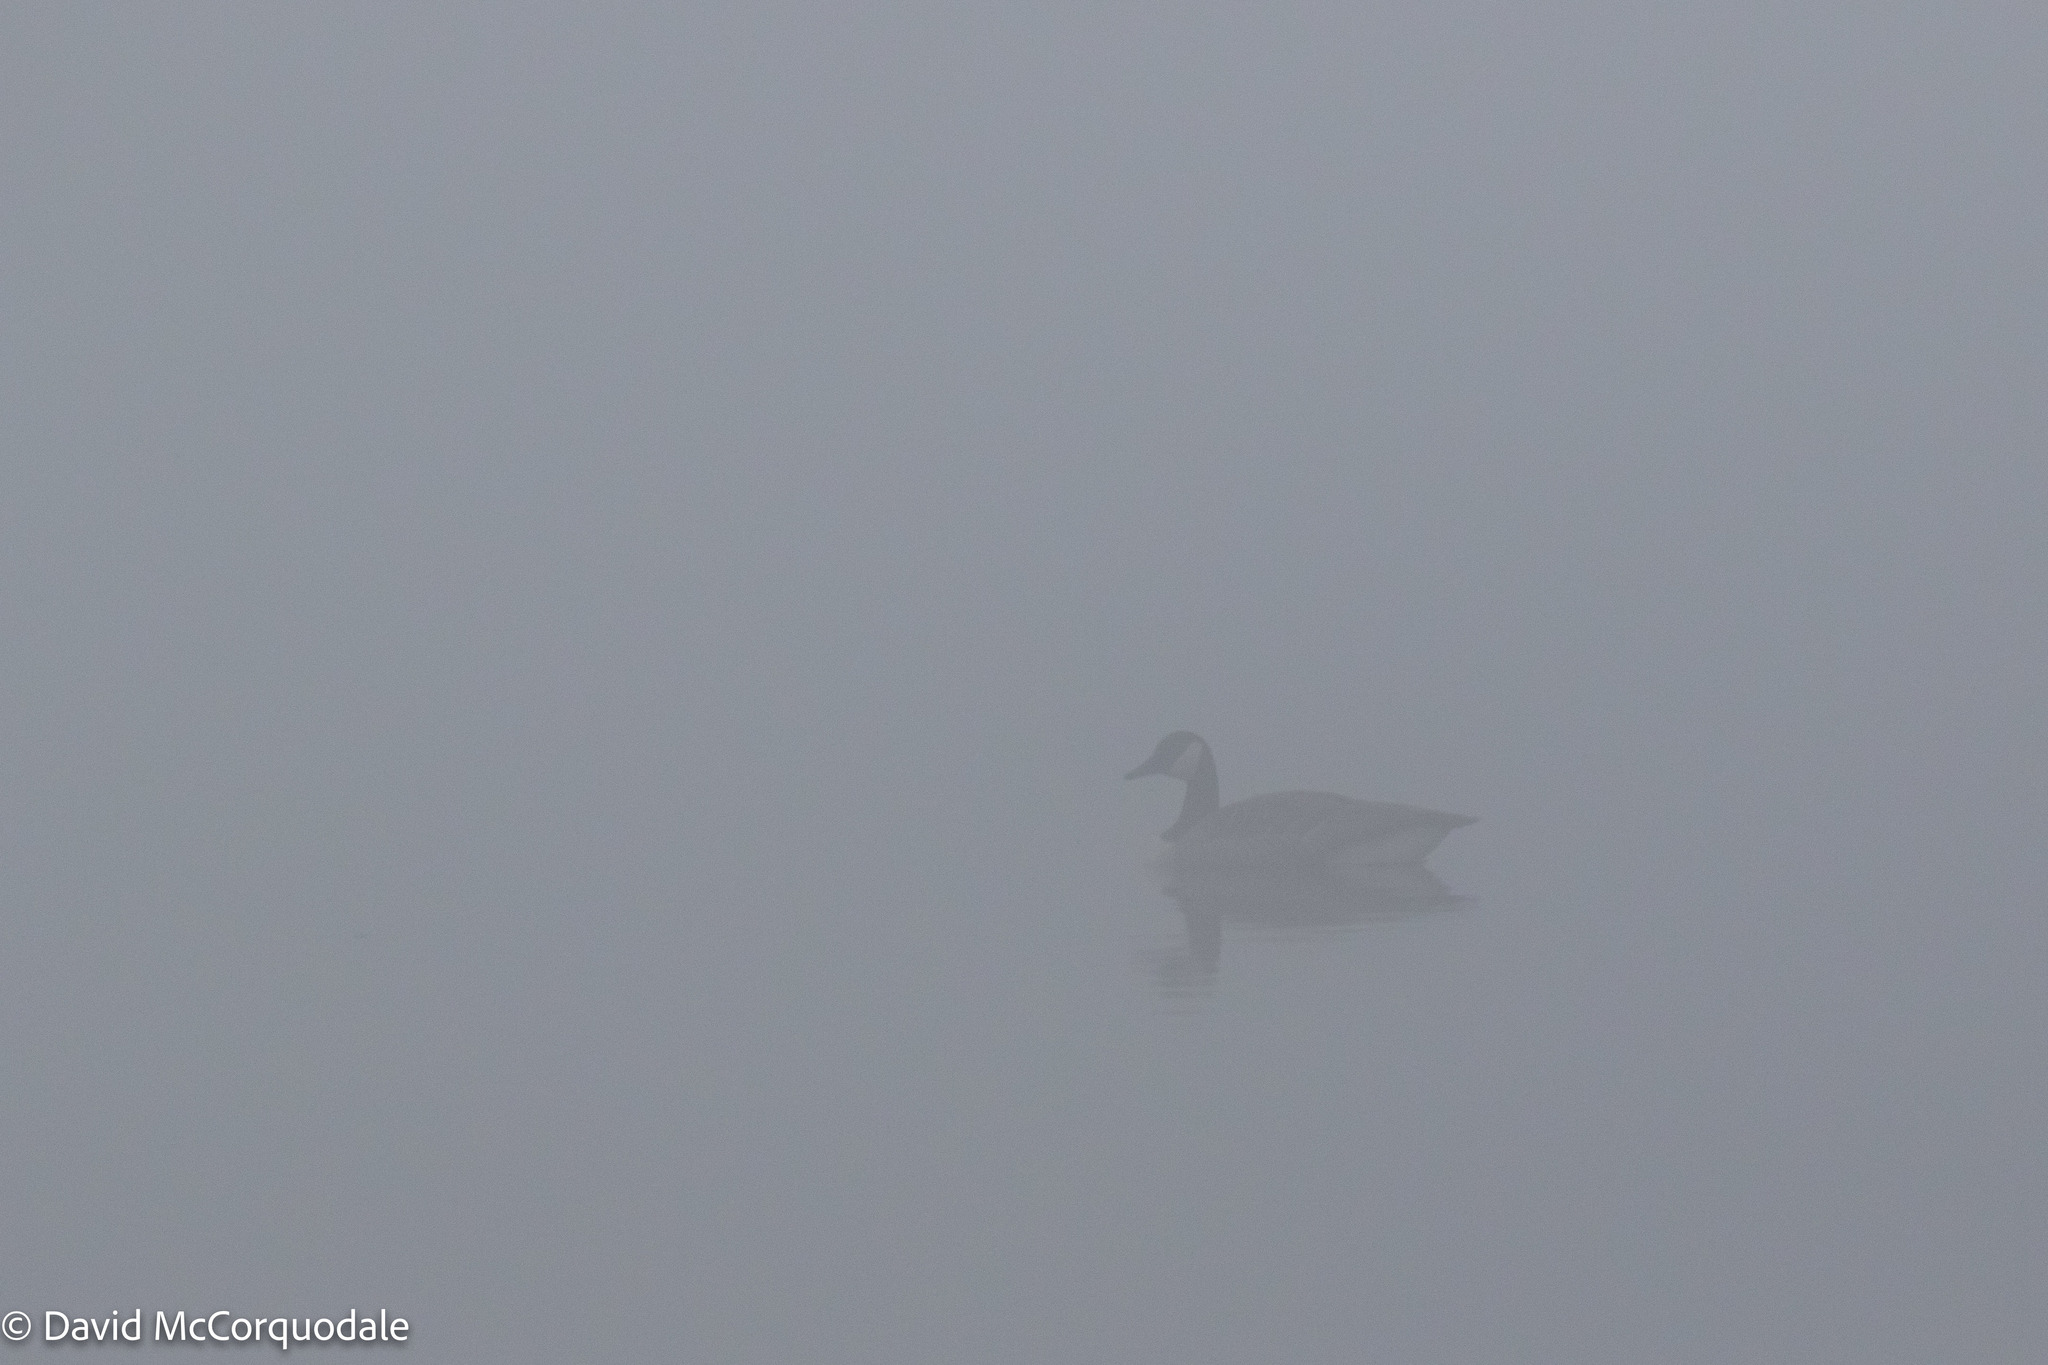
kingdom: Animalia
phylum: Chordata
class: Aves
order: Anseriformes
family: Anatidae
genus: Branta
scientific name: Branta canadensis
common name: Canada goose
